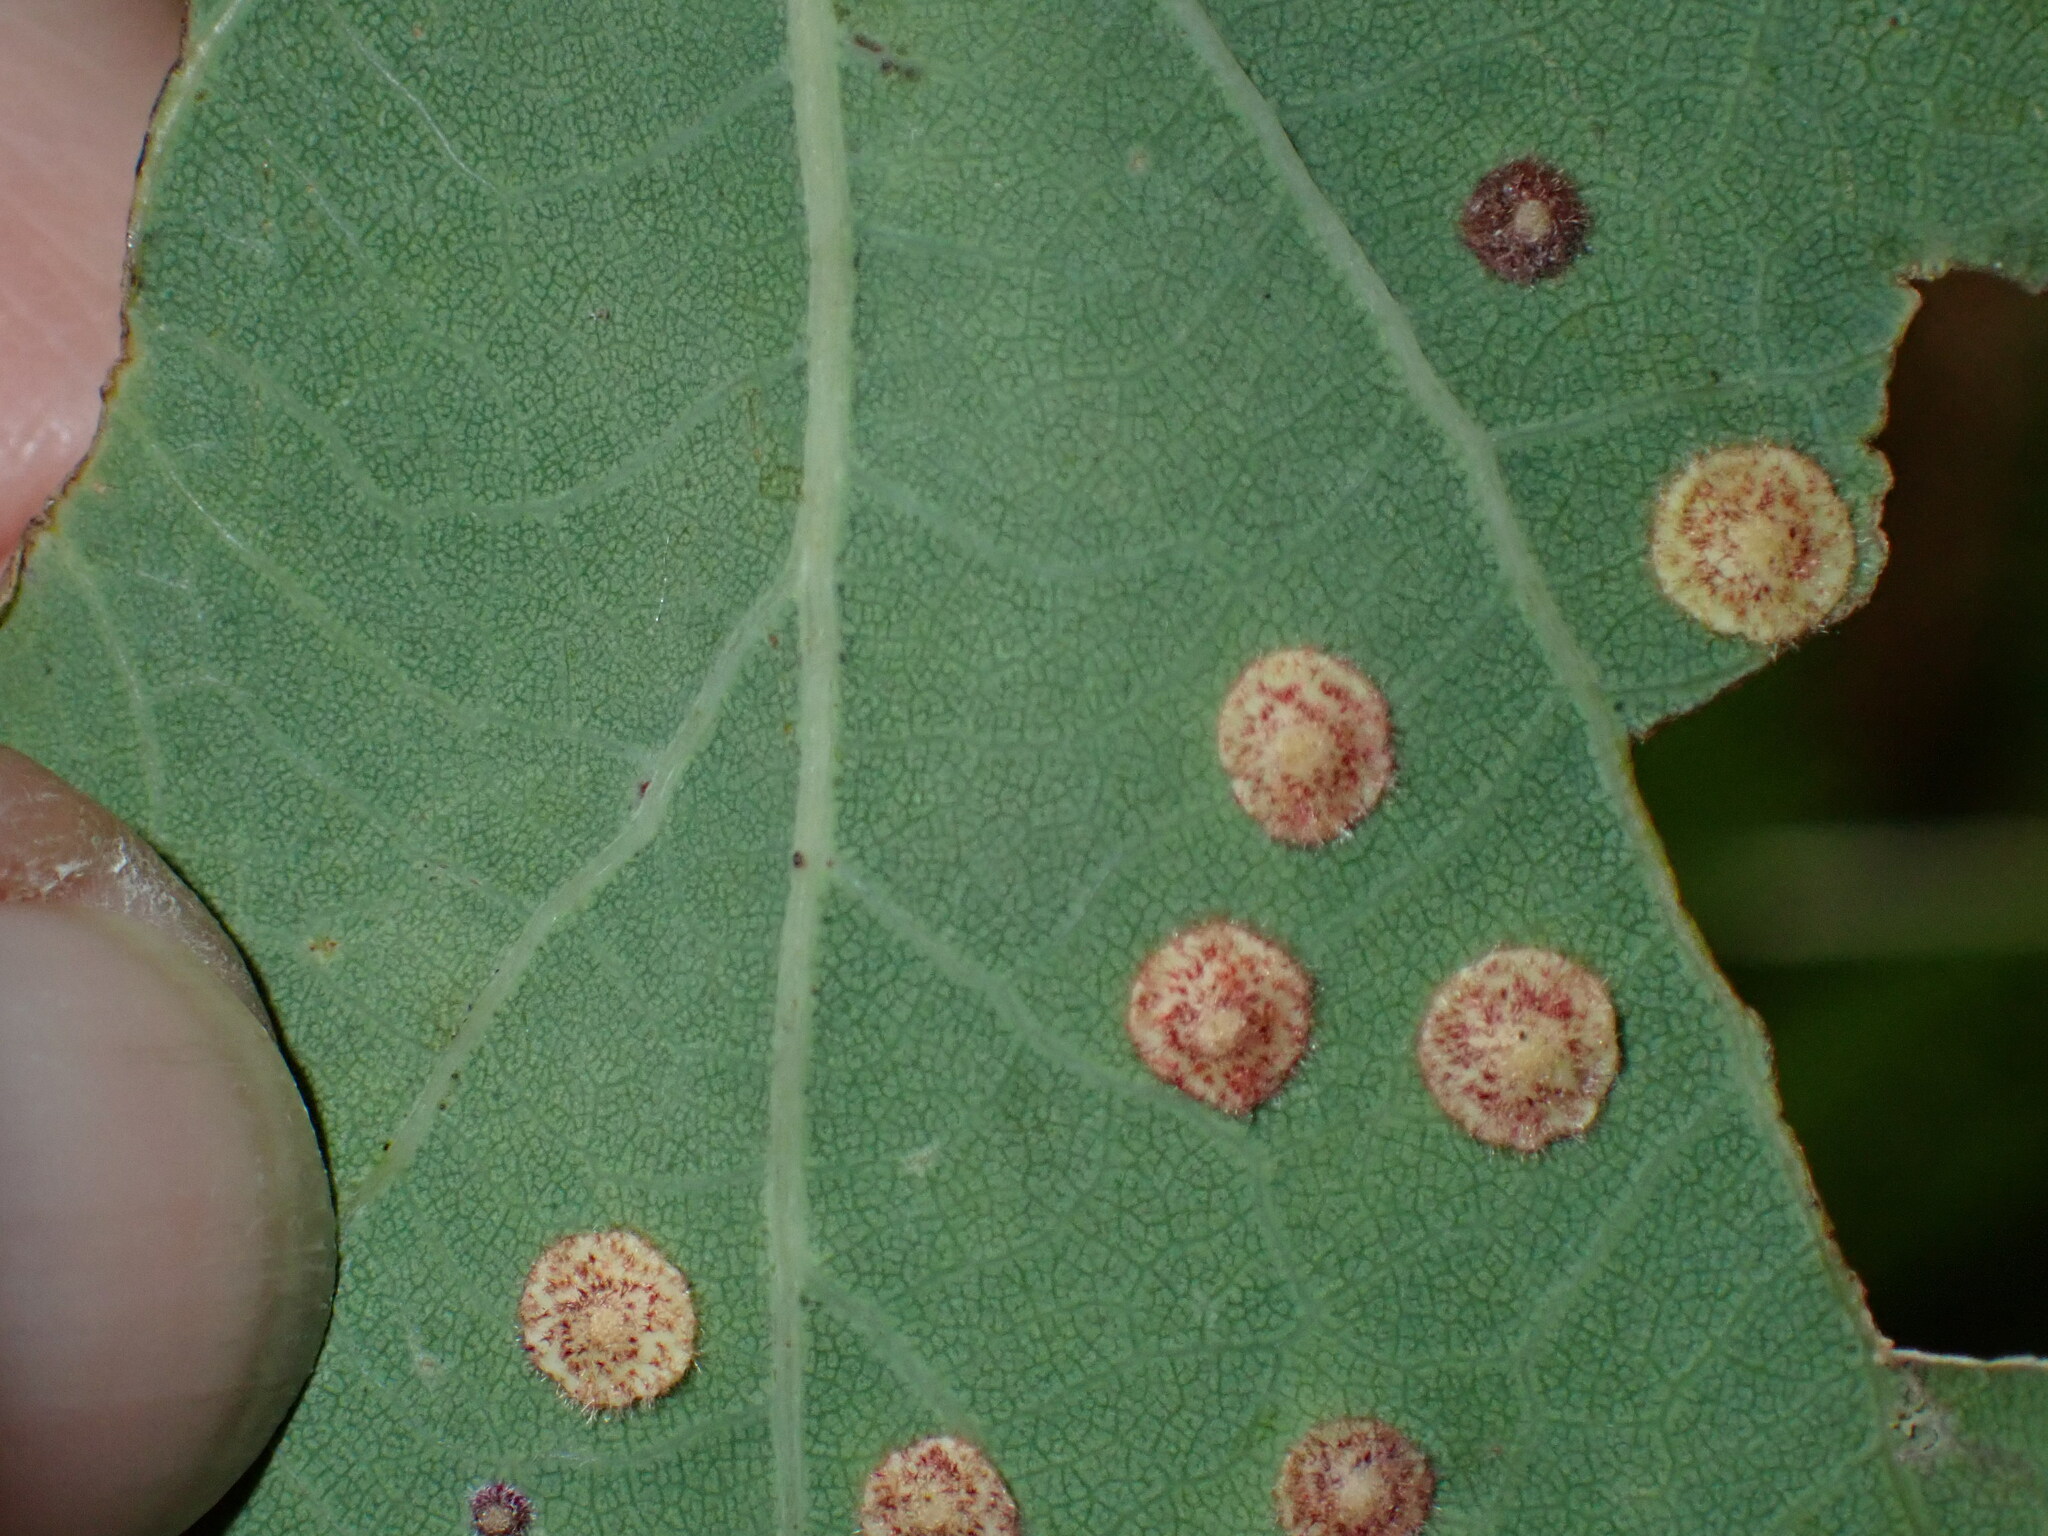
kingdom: Animalia
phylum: Arthropoda
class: Insecta
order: Hymenoptera
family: Cynipidae
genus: Neuroterus
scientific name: Neuroterus quercusbaccarum
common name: Common spangle gall
